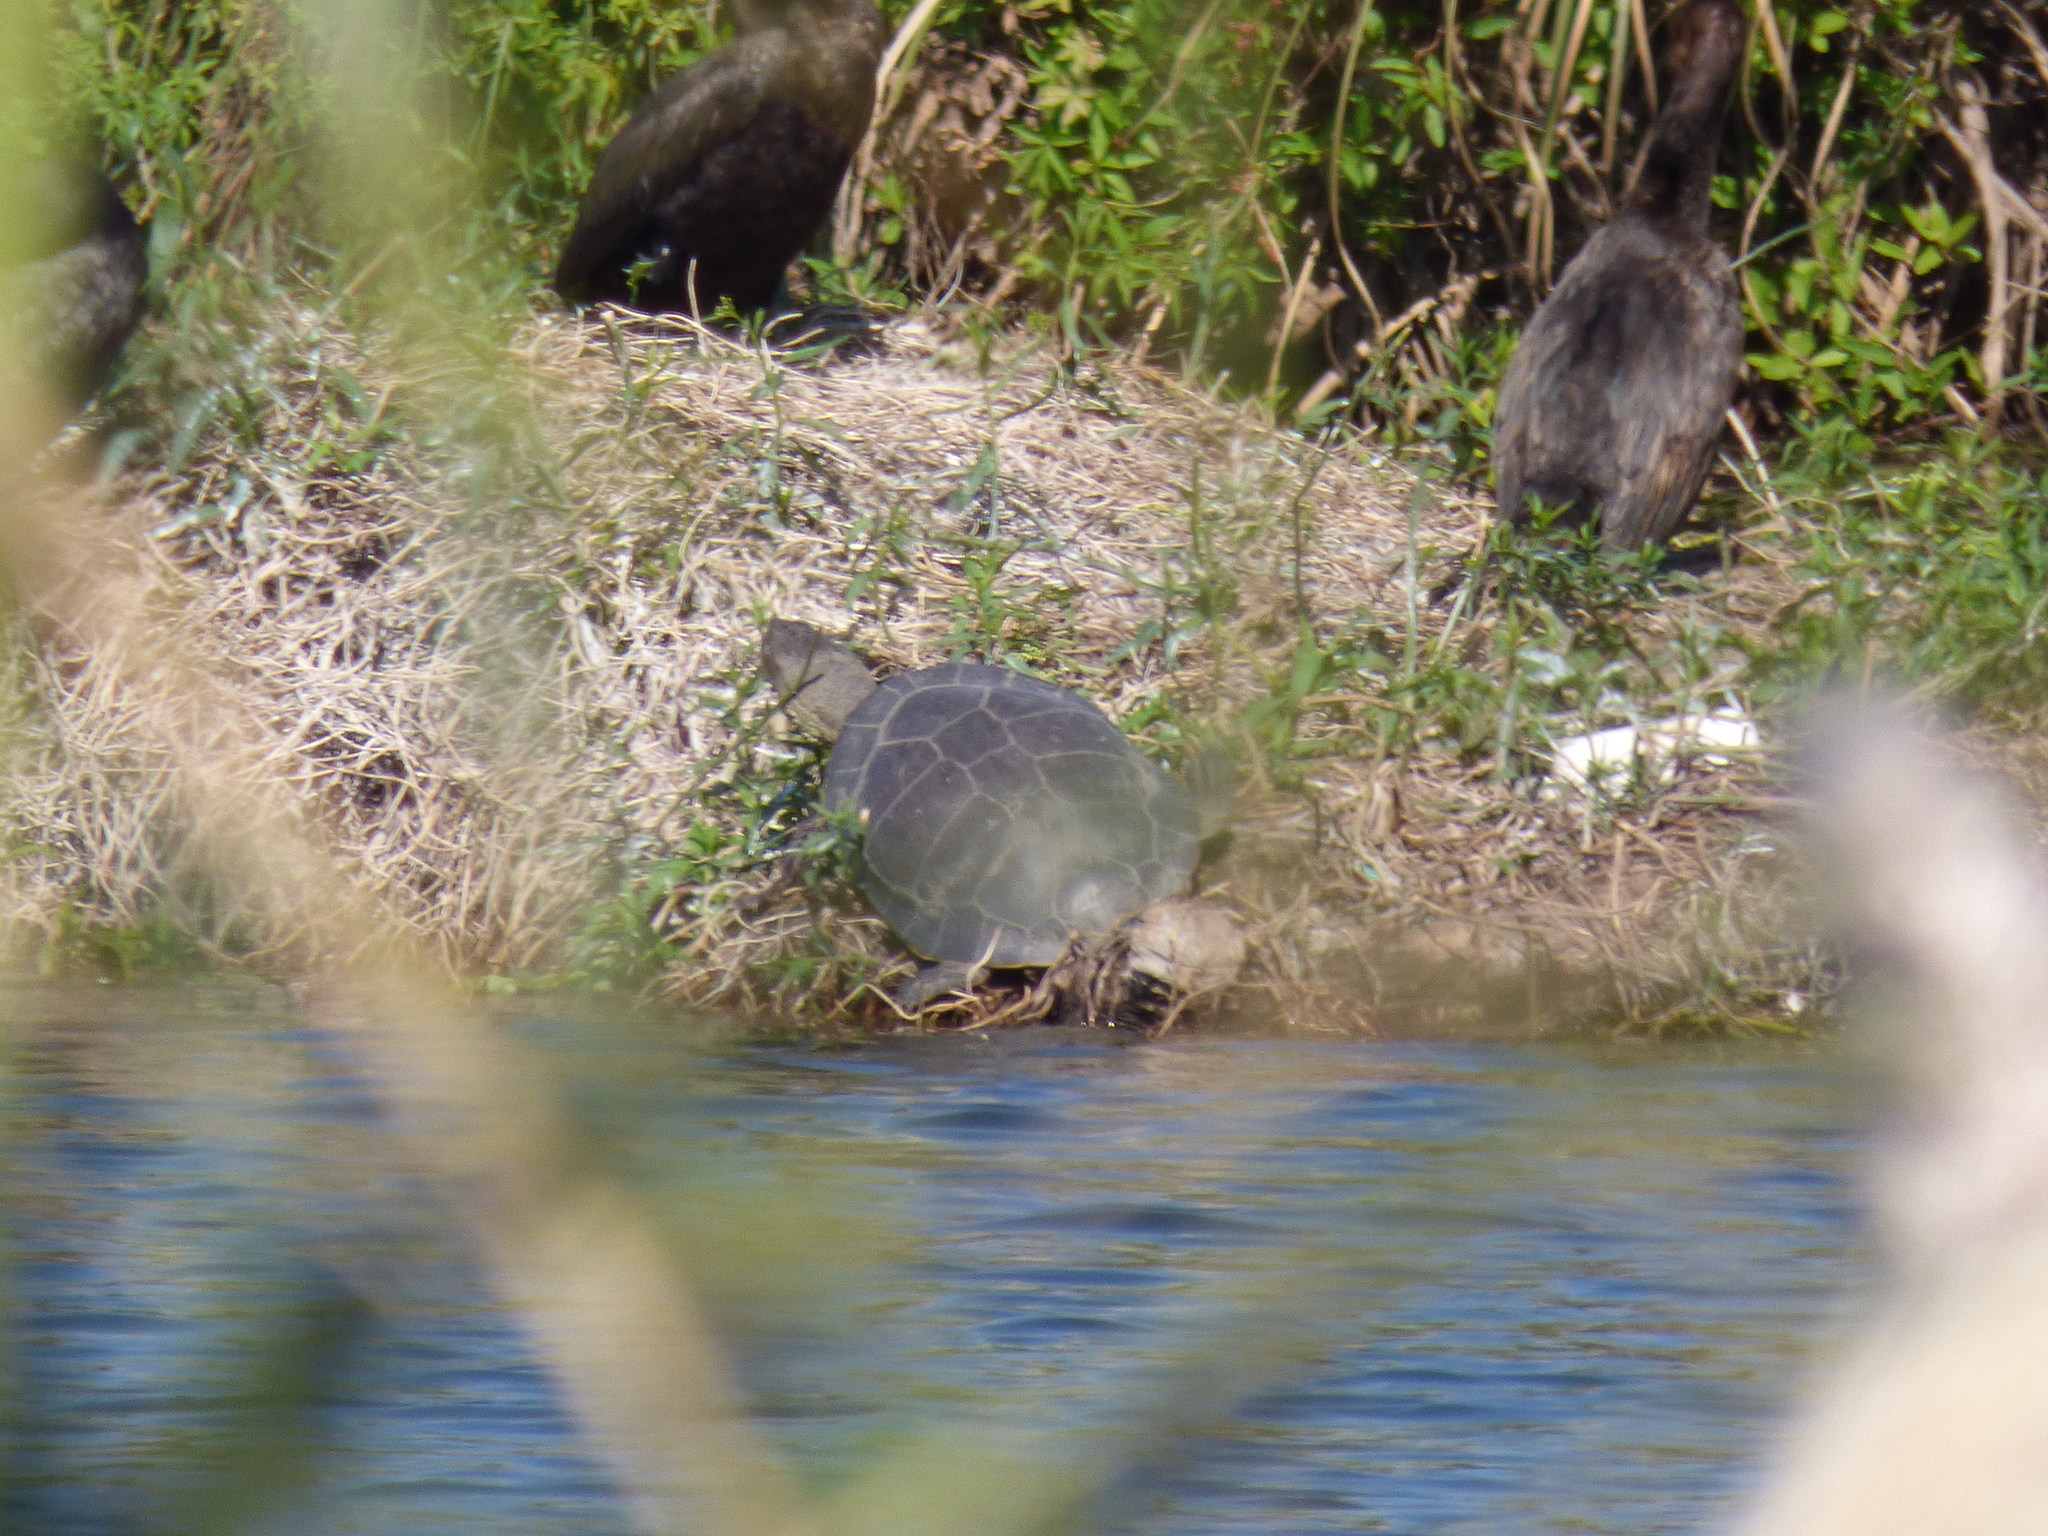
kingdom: Animalia
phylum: Chordata
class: Testudines
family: Chelidae
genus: Phrynops
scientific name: Phrynops hilarii
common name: Side-necked turtle of saint hillaire
